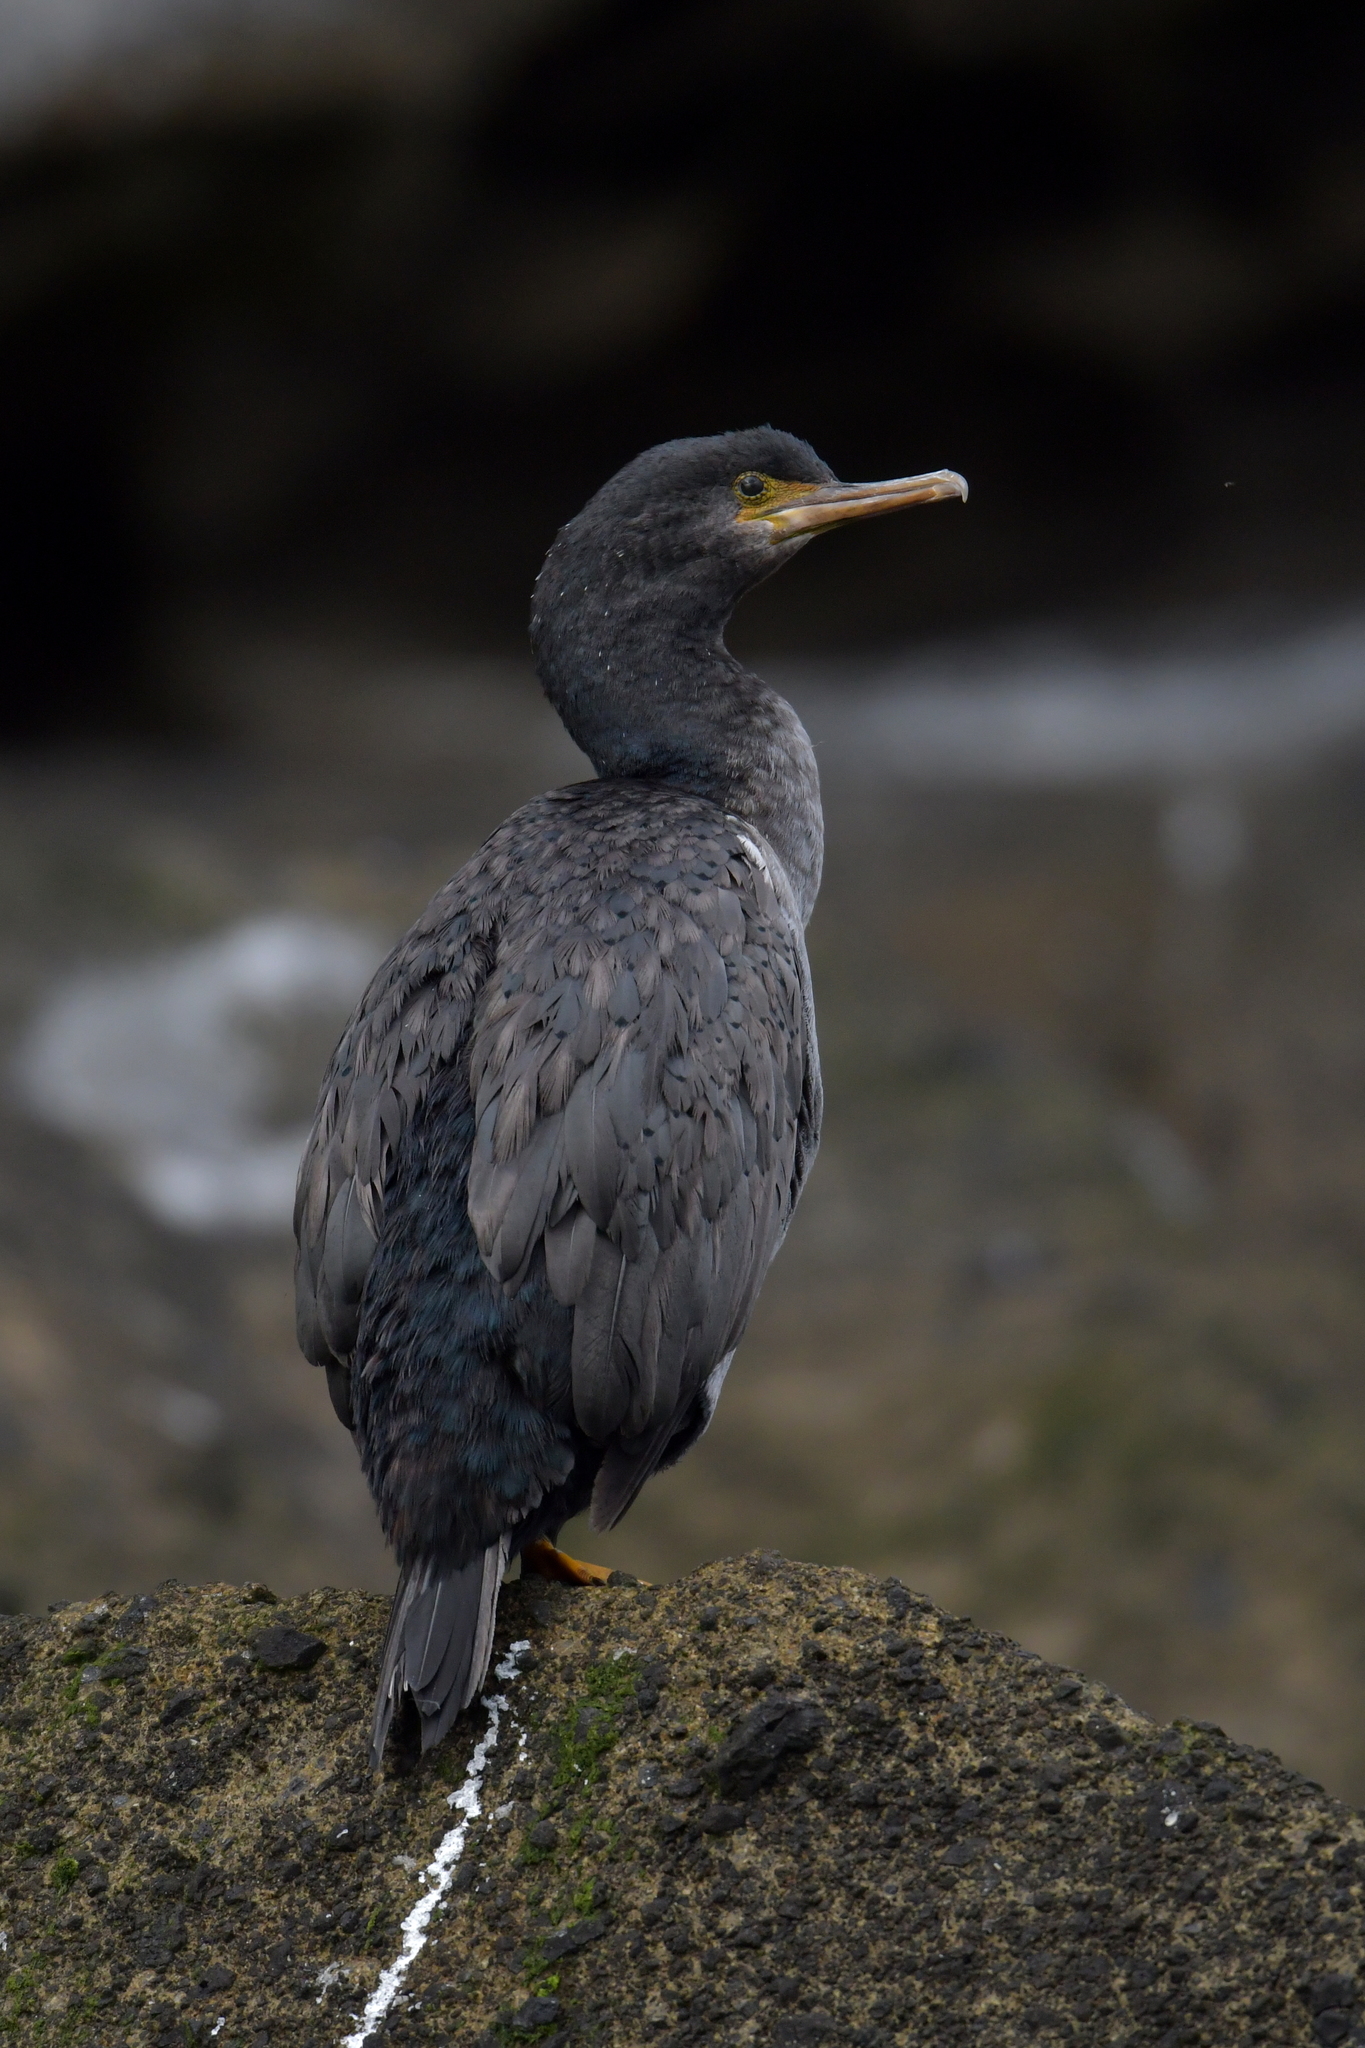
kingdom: Animalia
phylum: Chordata
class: Aves
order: Suliformes
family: Phalacrocoracidae
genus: Phalacrocorax
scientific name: Phalacrocorax featherstoni
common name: Pitt shag
